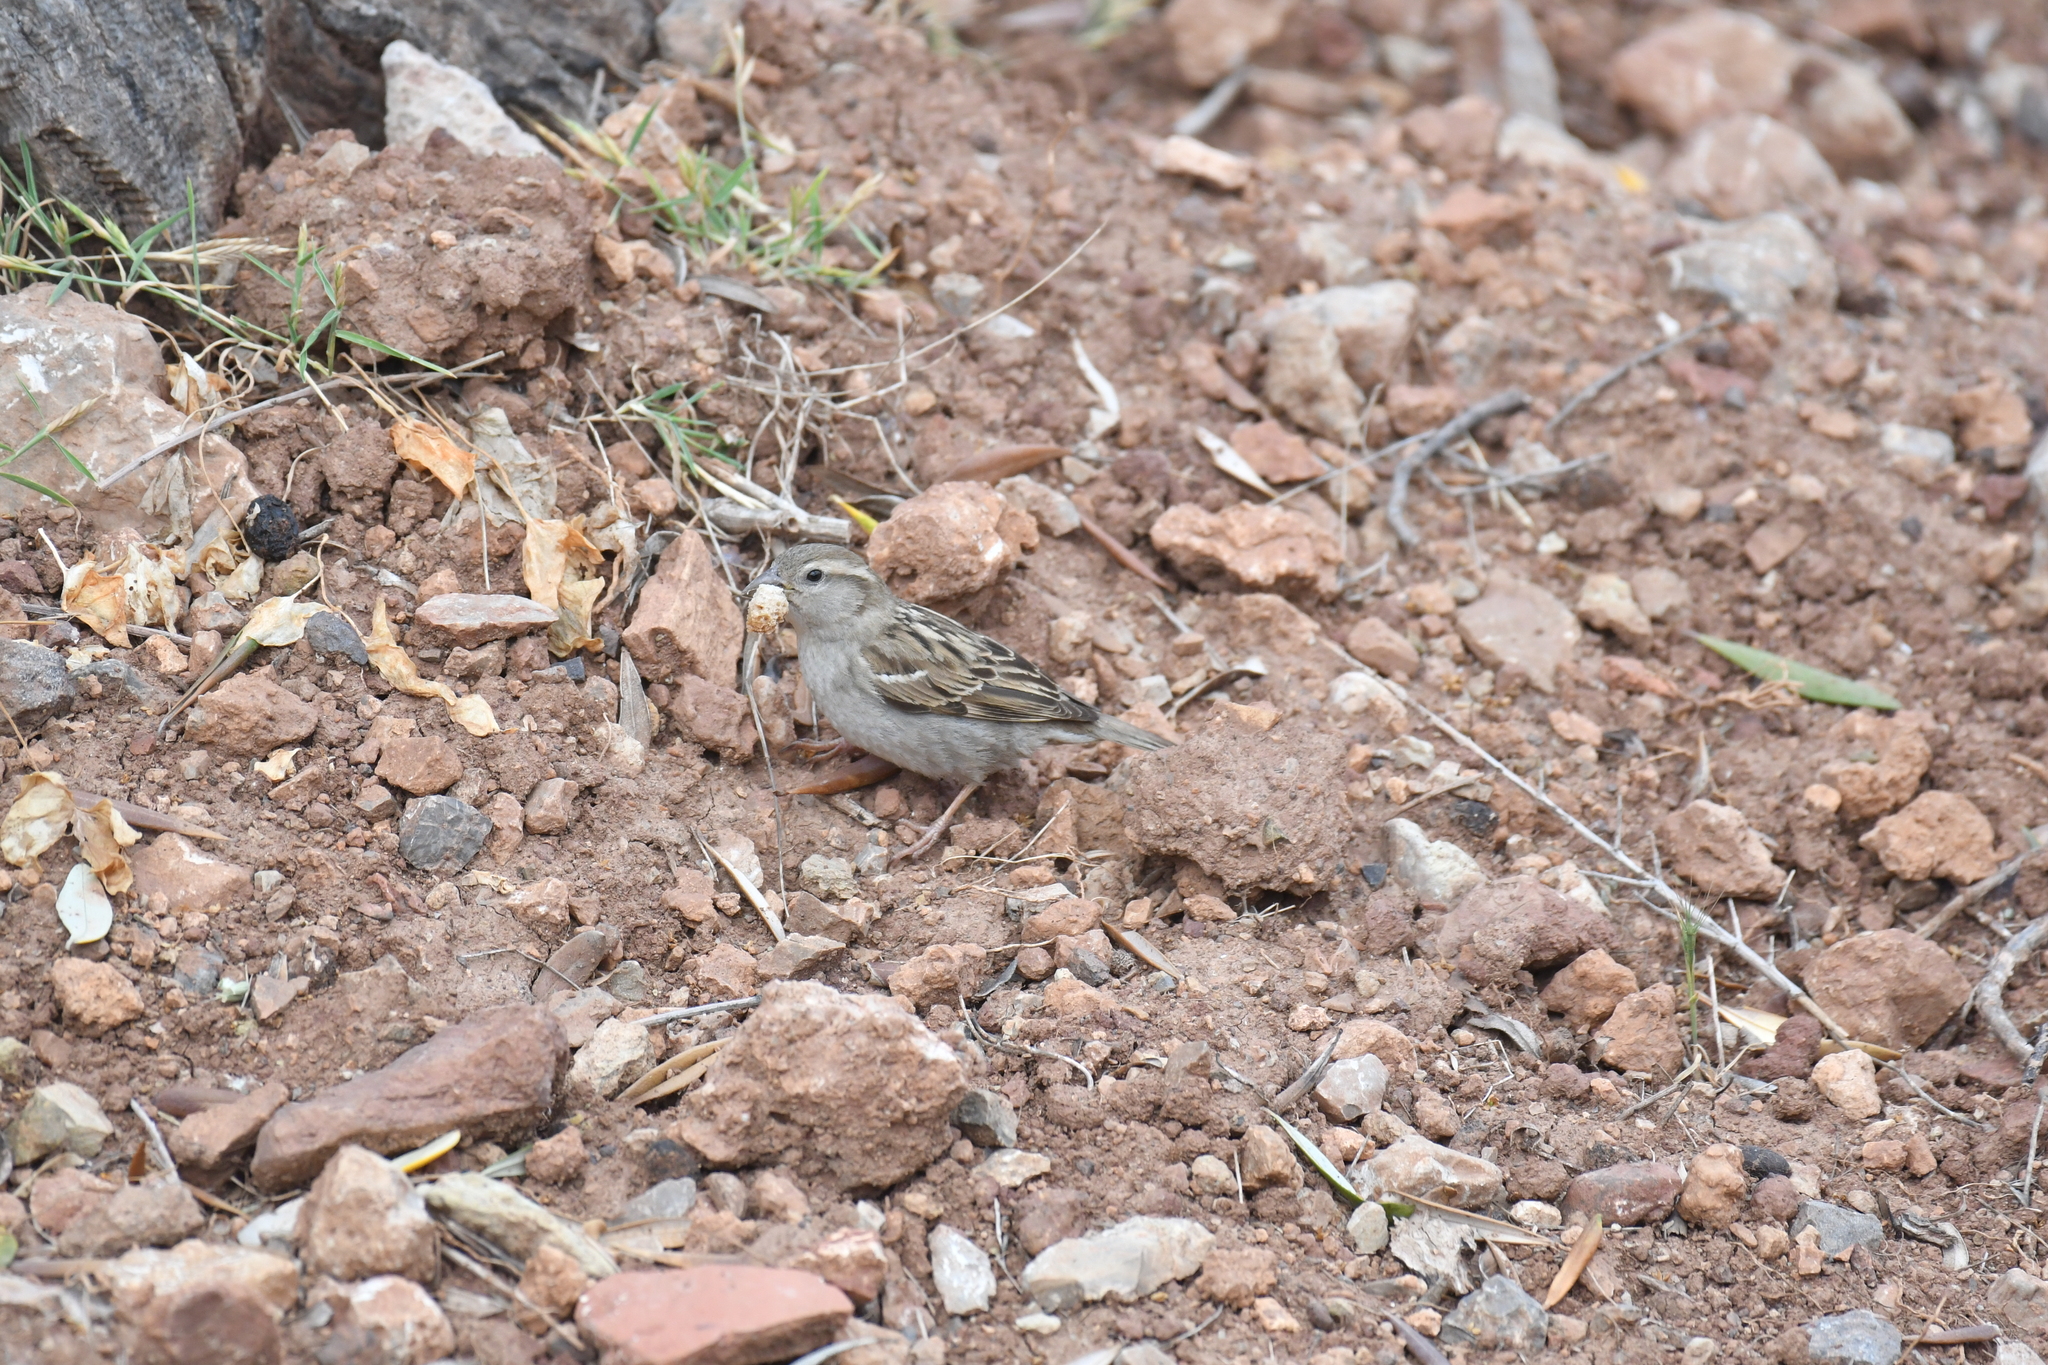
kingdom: Animalia
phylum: Chordata
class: Aves
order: Passeriformes
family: Passeridae
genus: Passer
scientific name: Passer domesticus
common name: House sparrow
